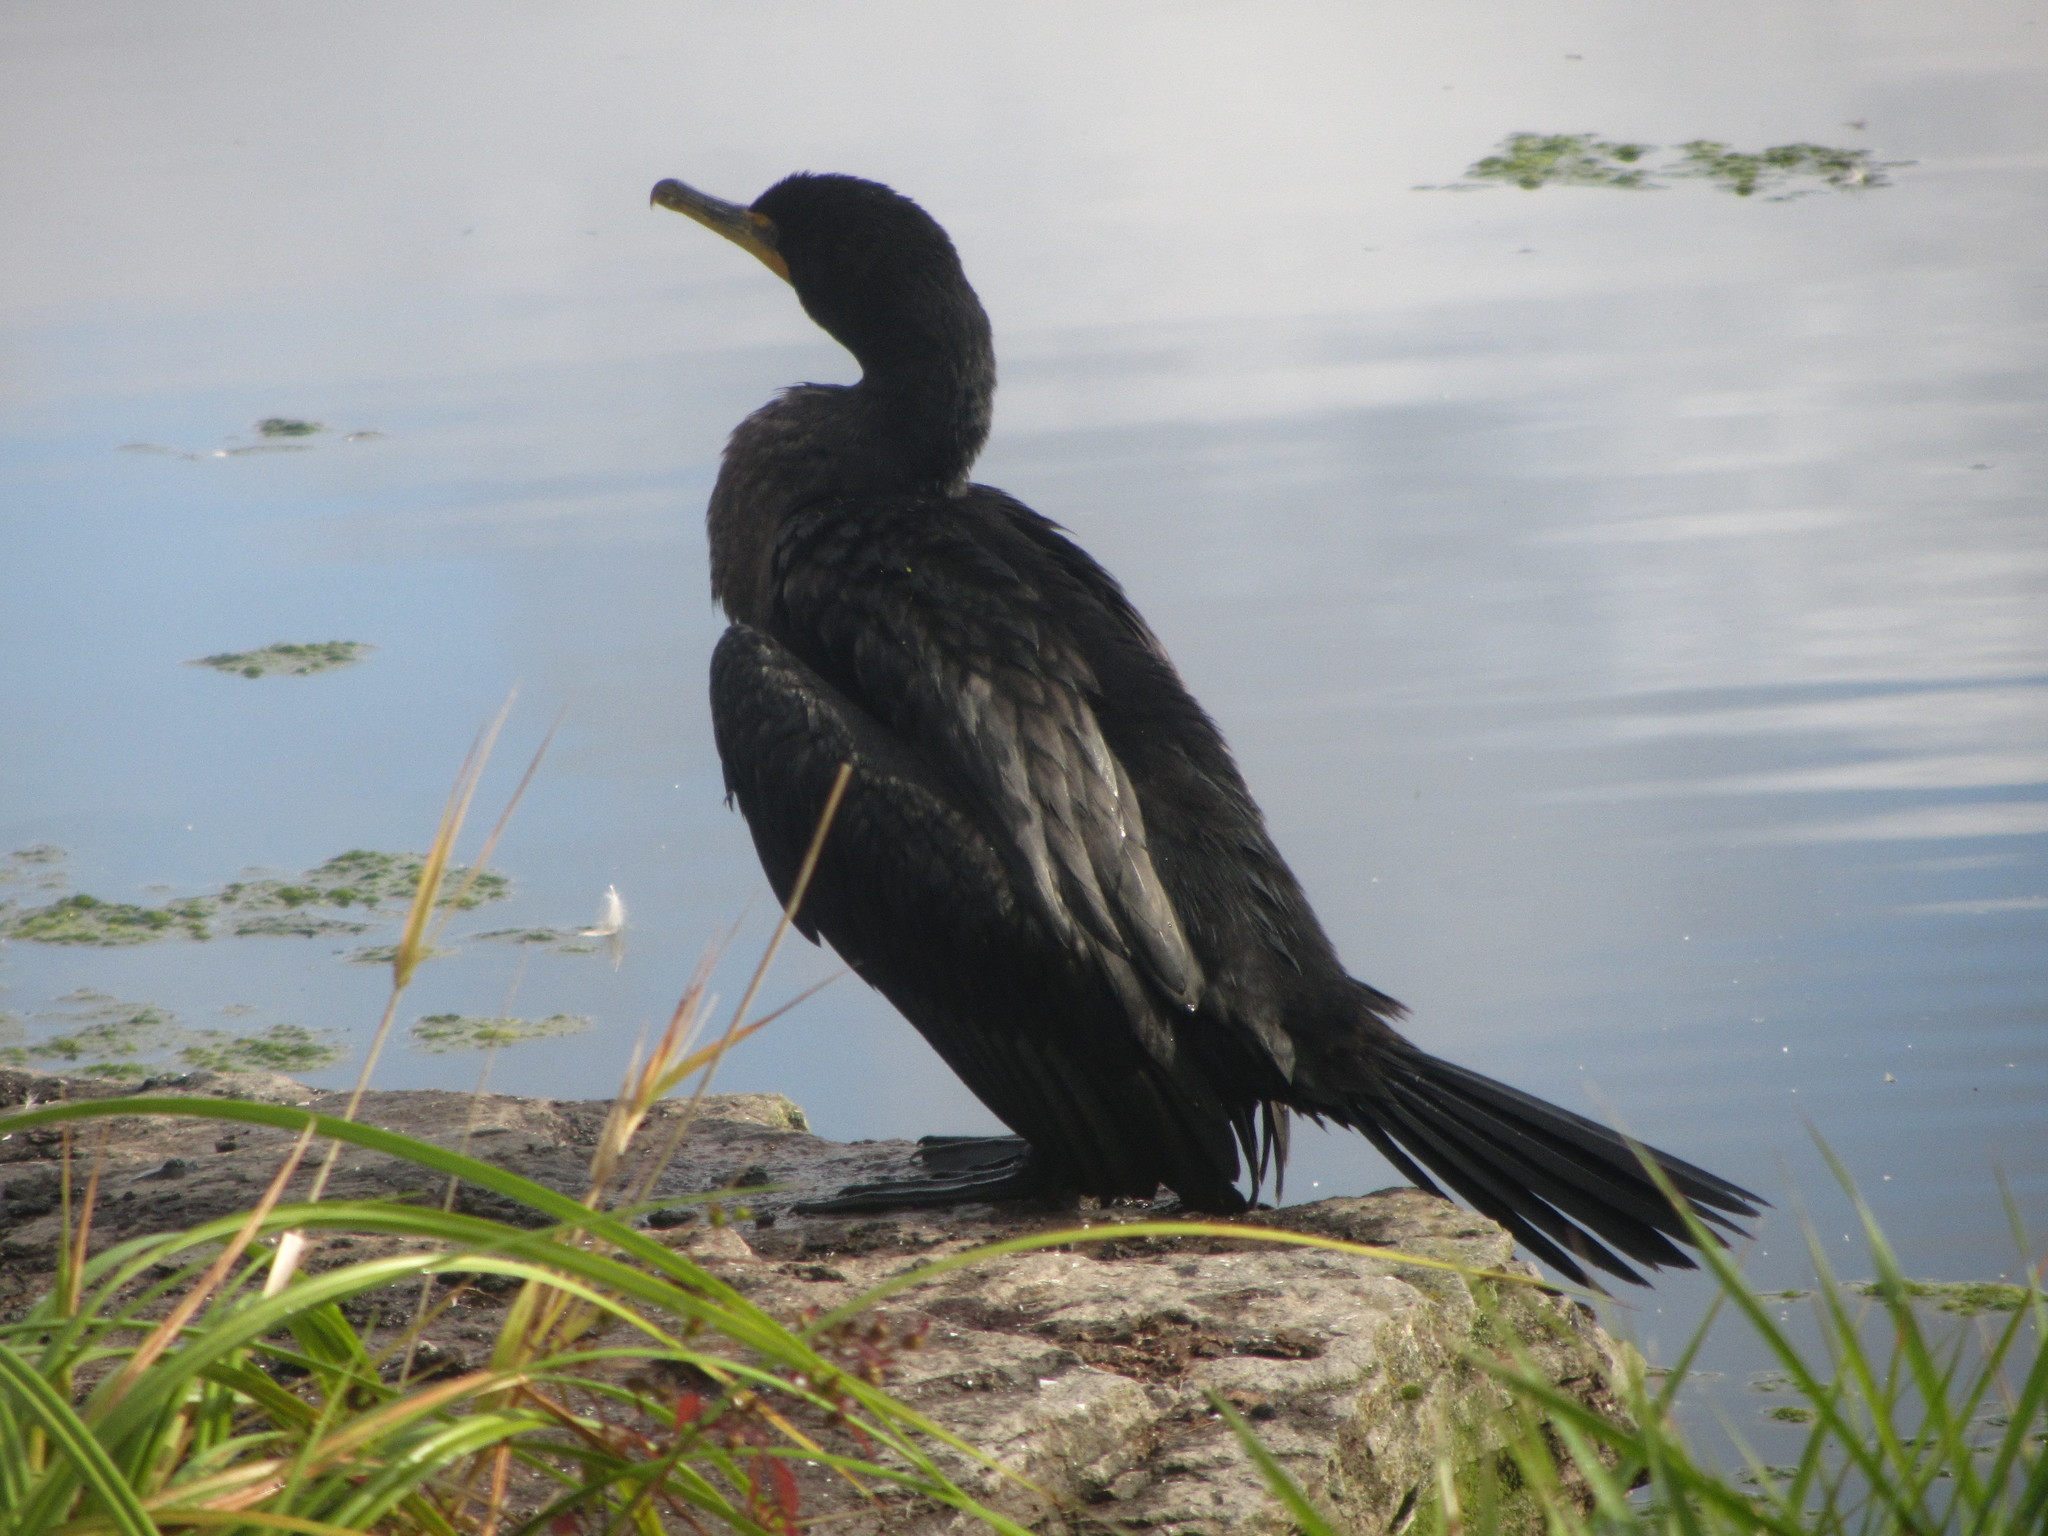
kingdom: Animalia
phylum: Chordata
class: Aves
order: Suliformes
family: Phalacrocoracidae
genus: Phalacrocorax
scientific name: Phalacrocorax auritus
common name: Double-crested cormorant
